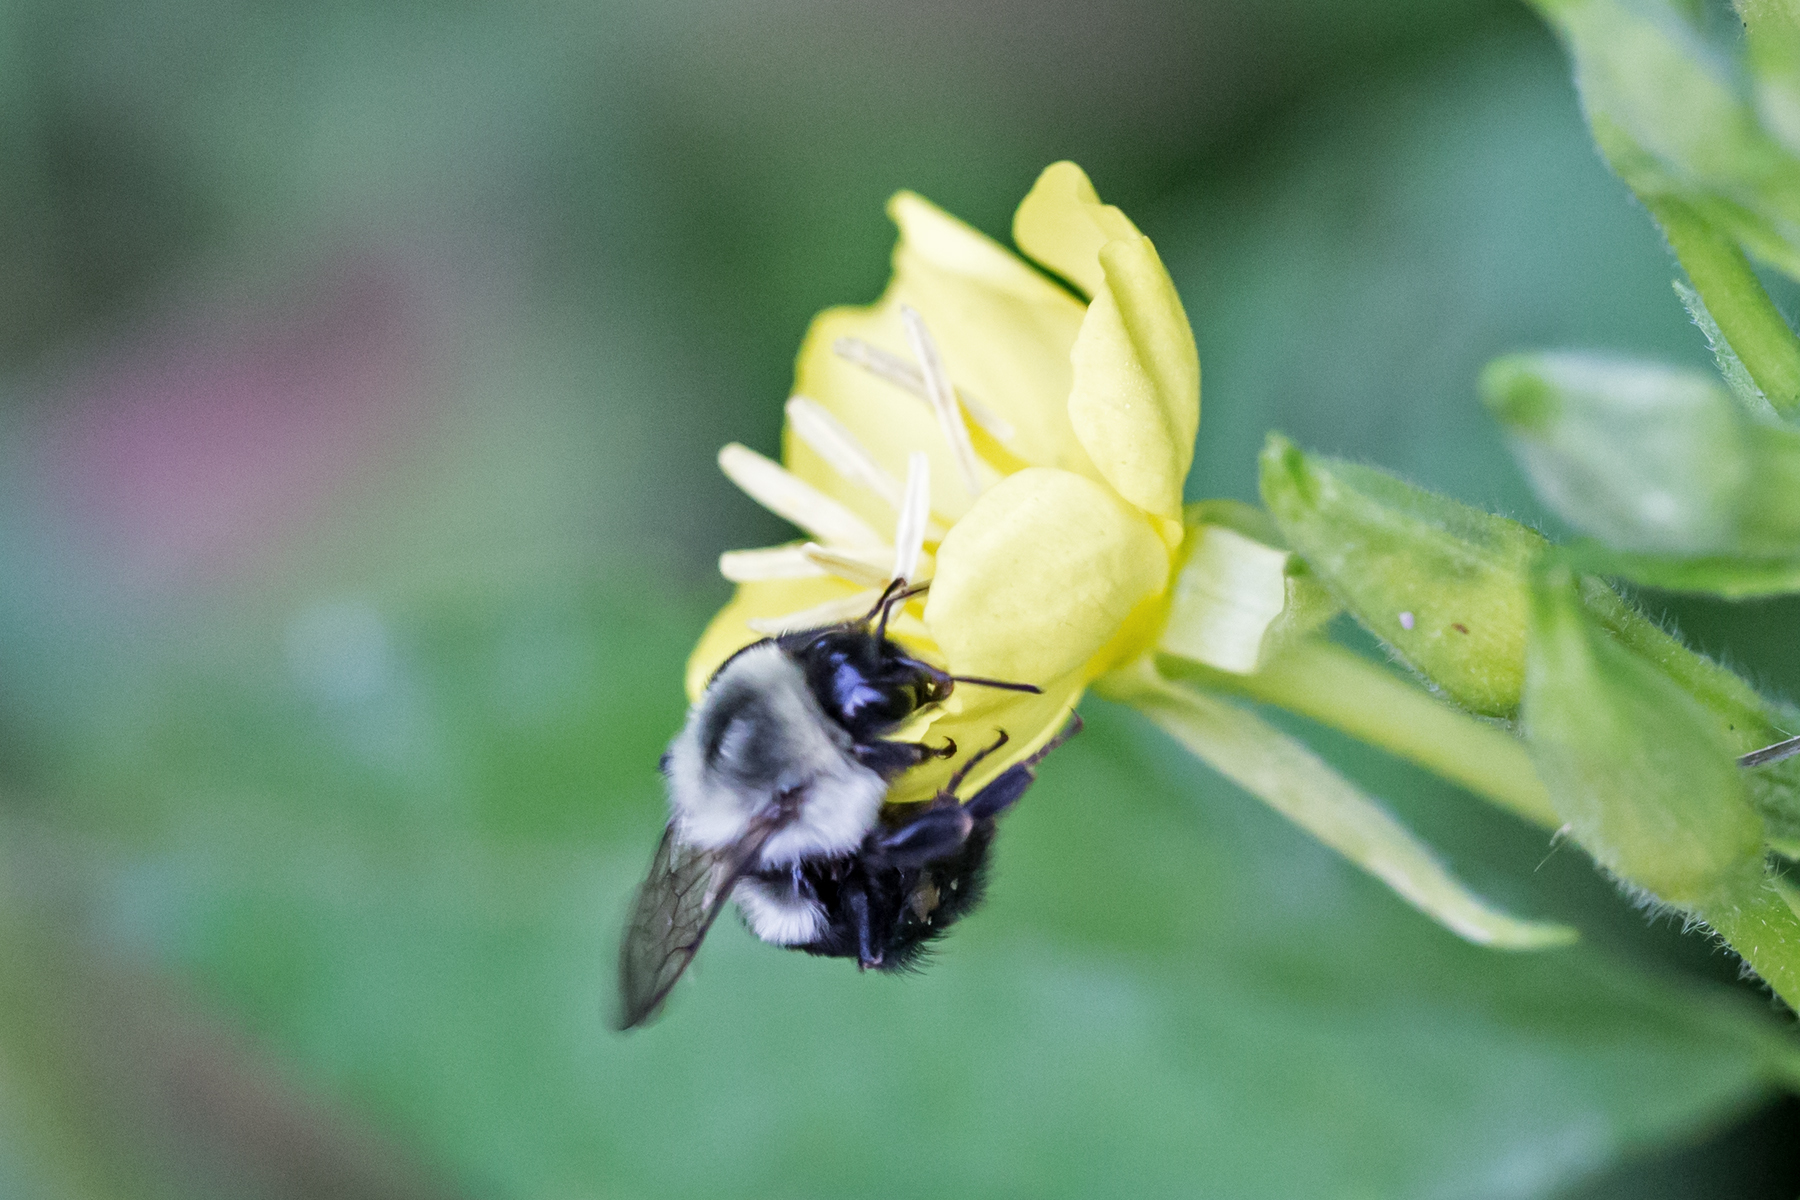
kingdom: Animalia
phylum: Arthropoda
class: Insecta
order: Hymenoptera
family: Apidae
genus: Bombus
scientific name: Bombus impatiens
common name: Common eastern bumble bee
